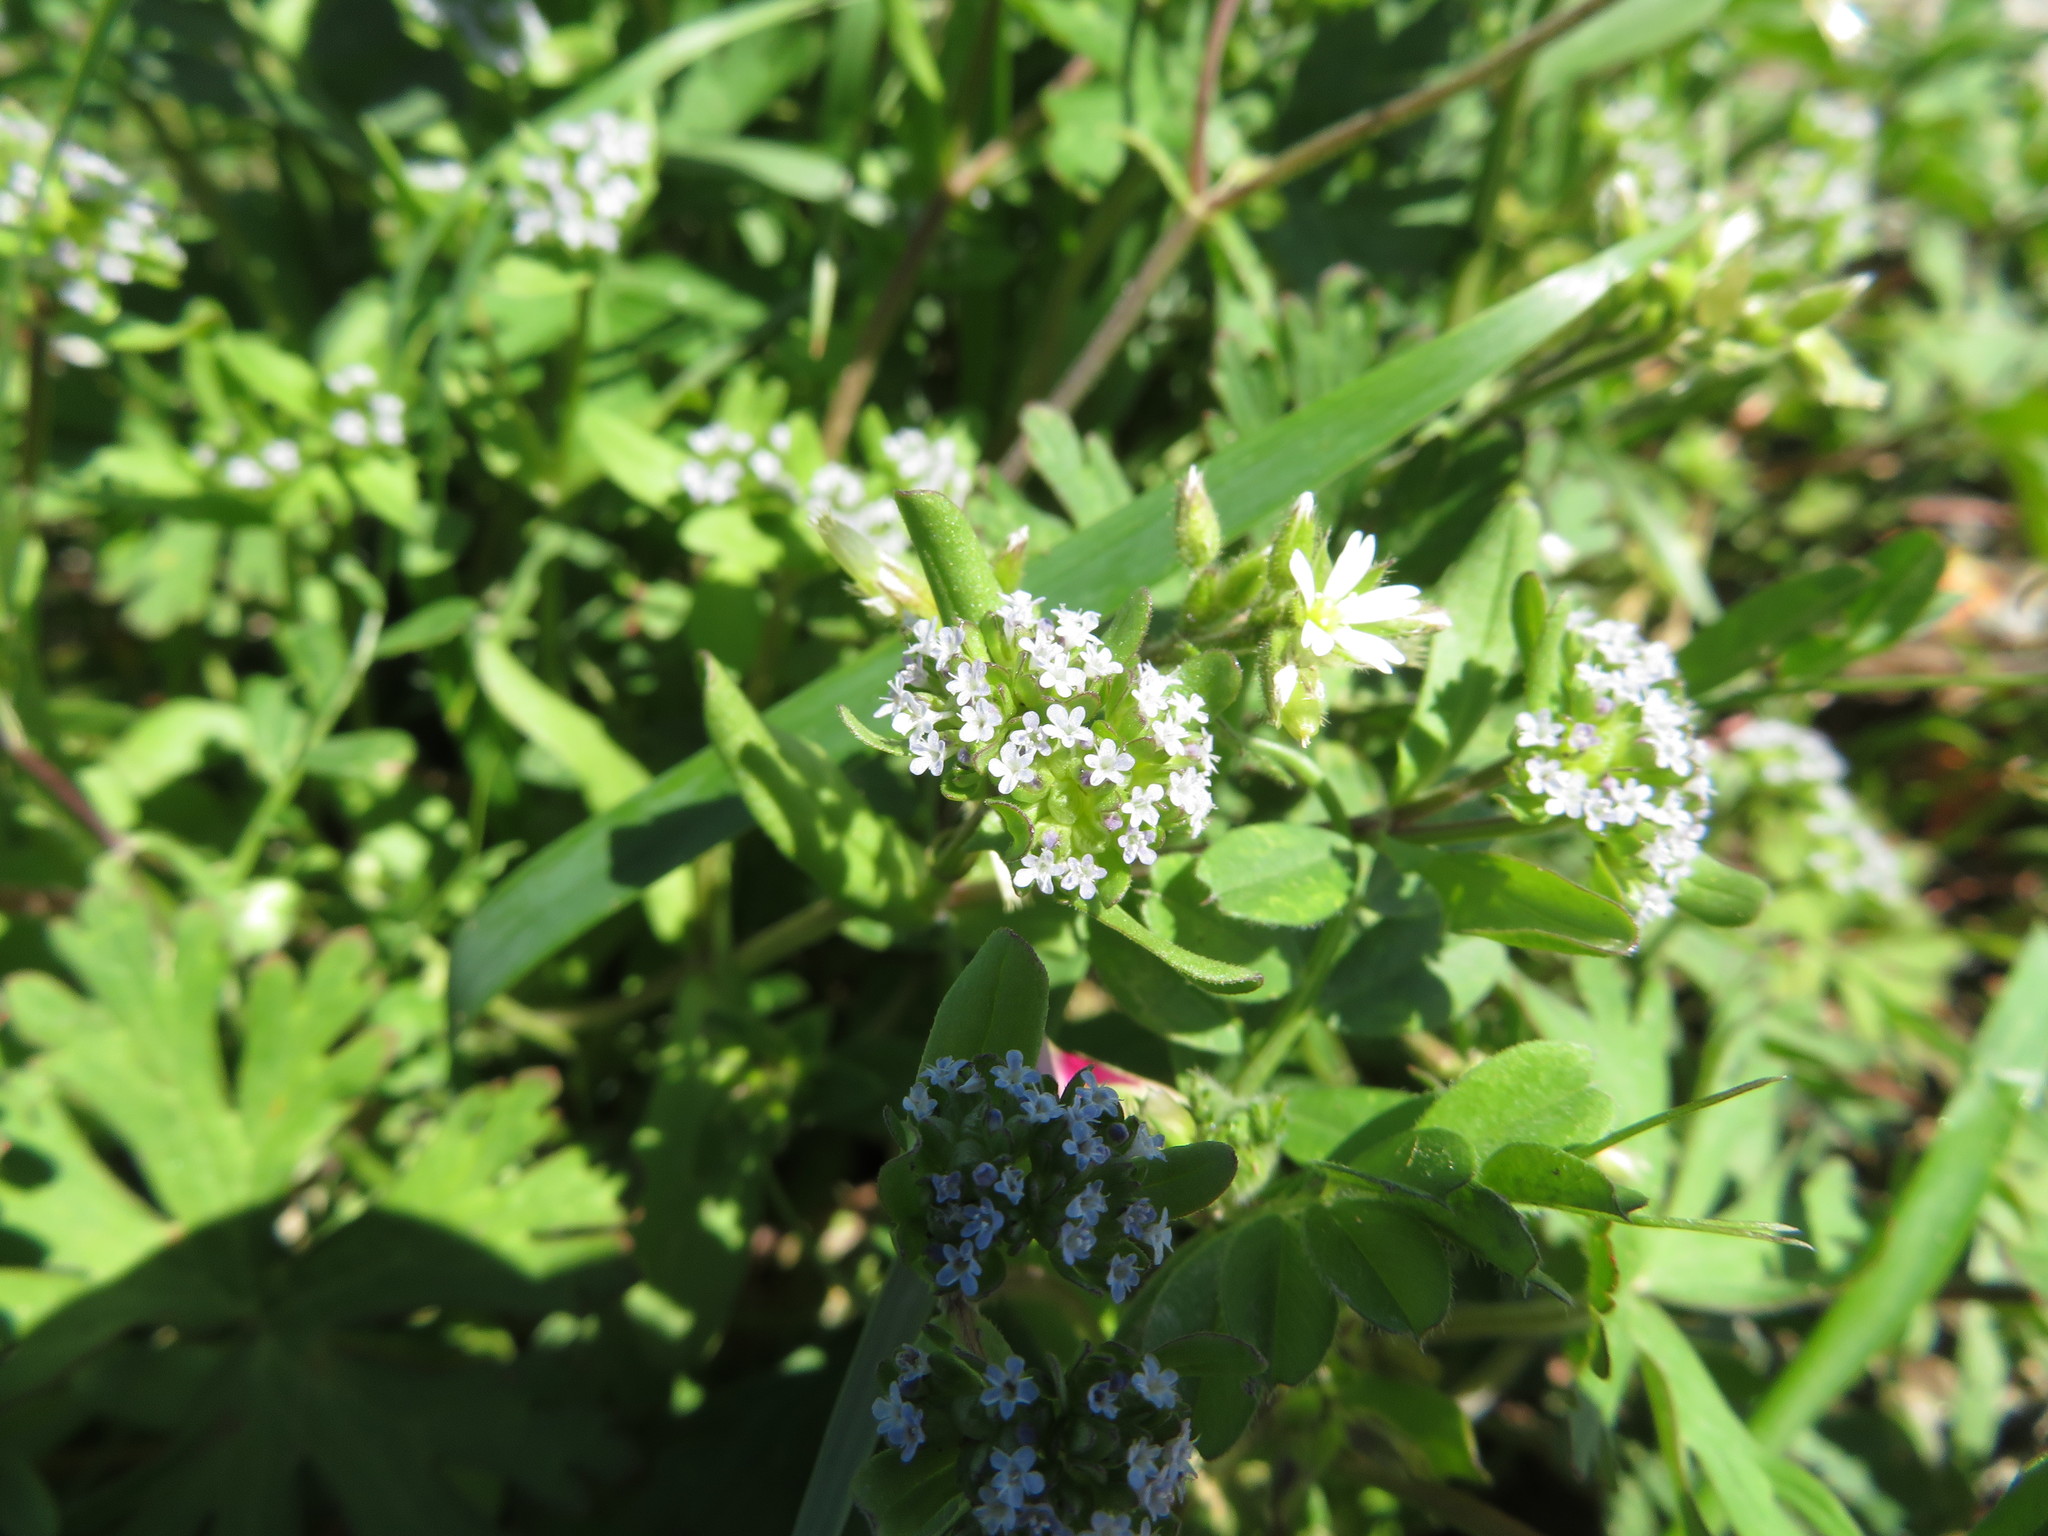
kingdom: Plantae
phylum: Tracheophyta
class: Magnoliopsida
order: Dipsacales
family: Caprifoliaceae
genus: Valerianella
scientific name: Valerianella locusta
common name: Common cornsalad
